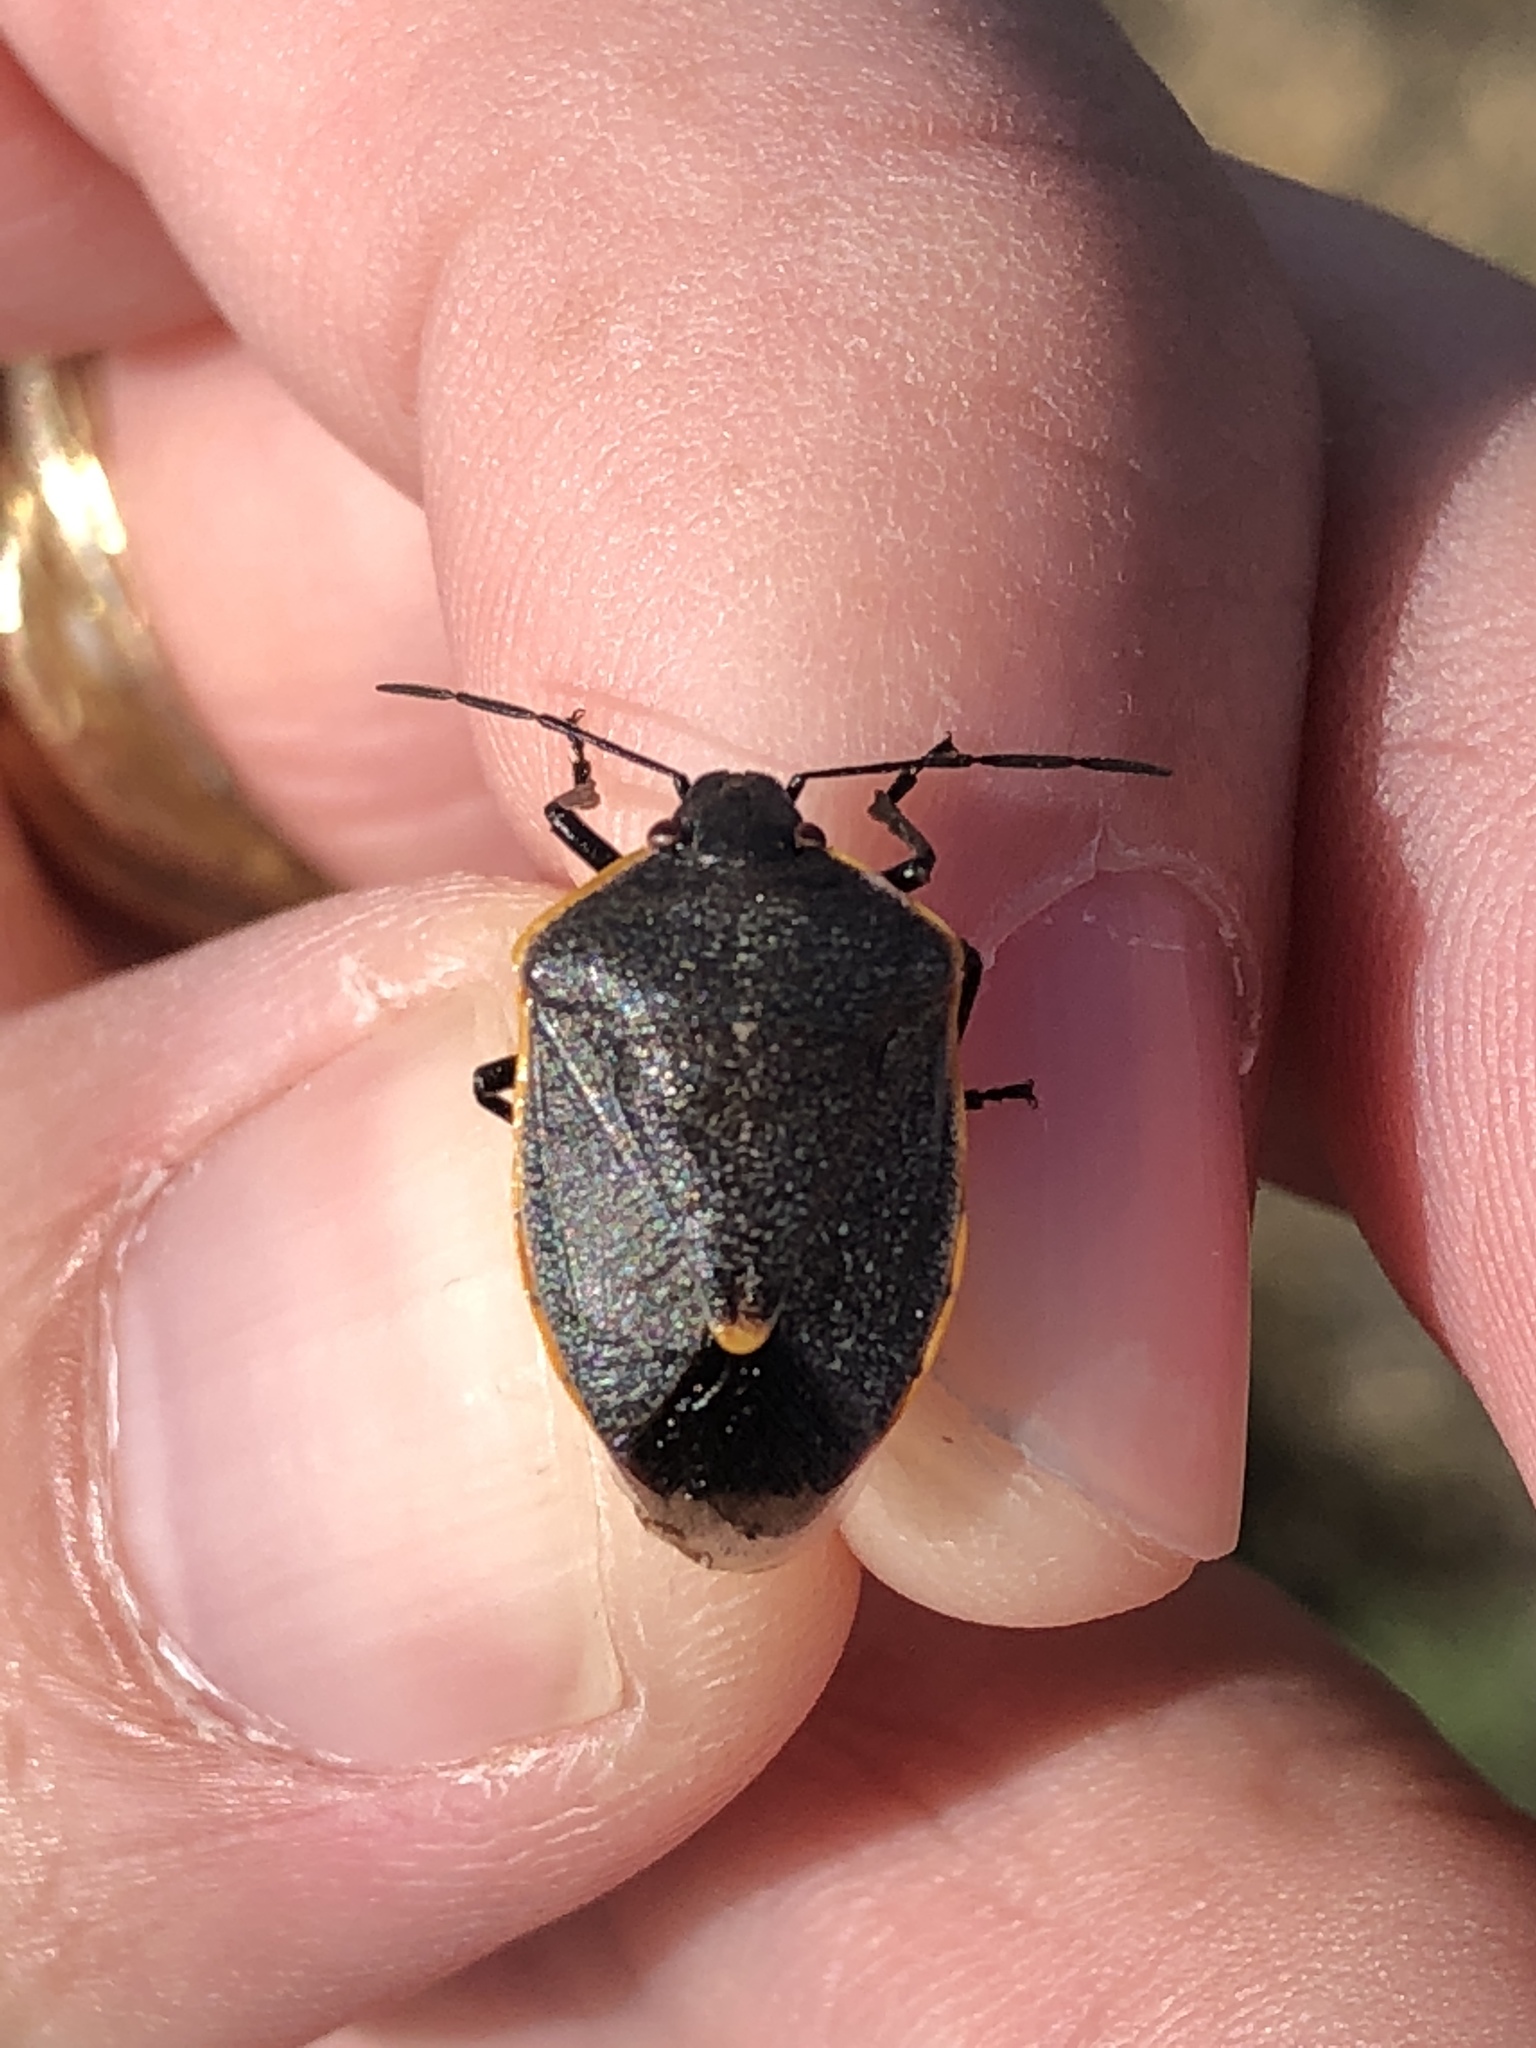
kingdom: Animalia
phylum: Arthropoda
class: Insecta
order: Hemiptera
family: Pentatomidae
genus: Chlorochroa
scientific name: Chlorochroa ligata
